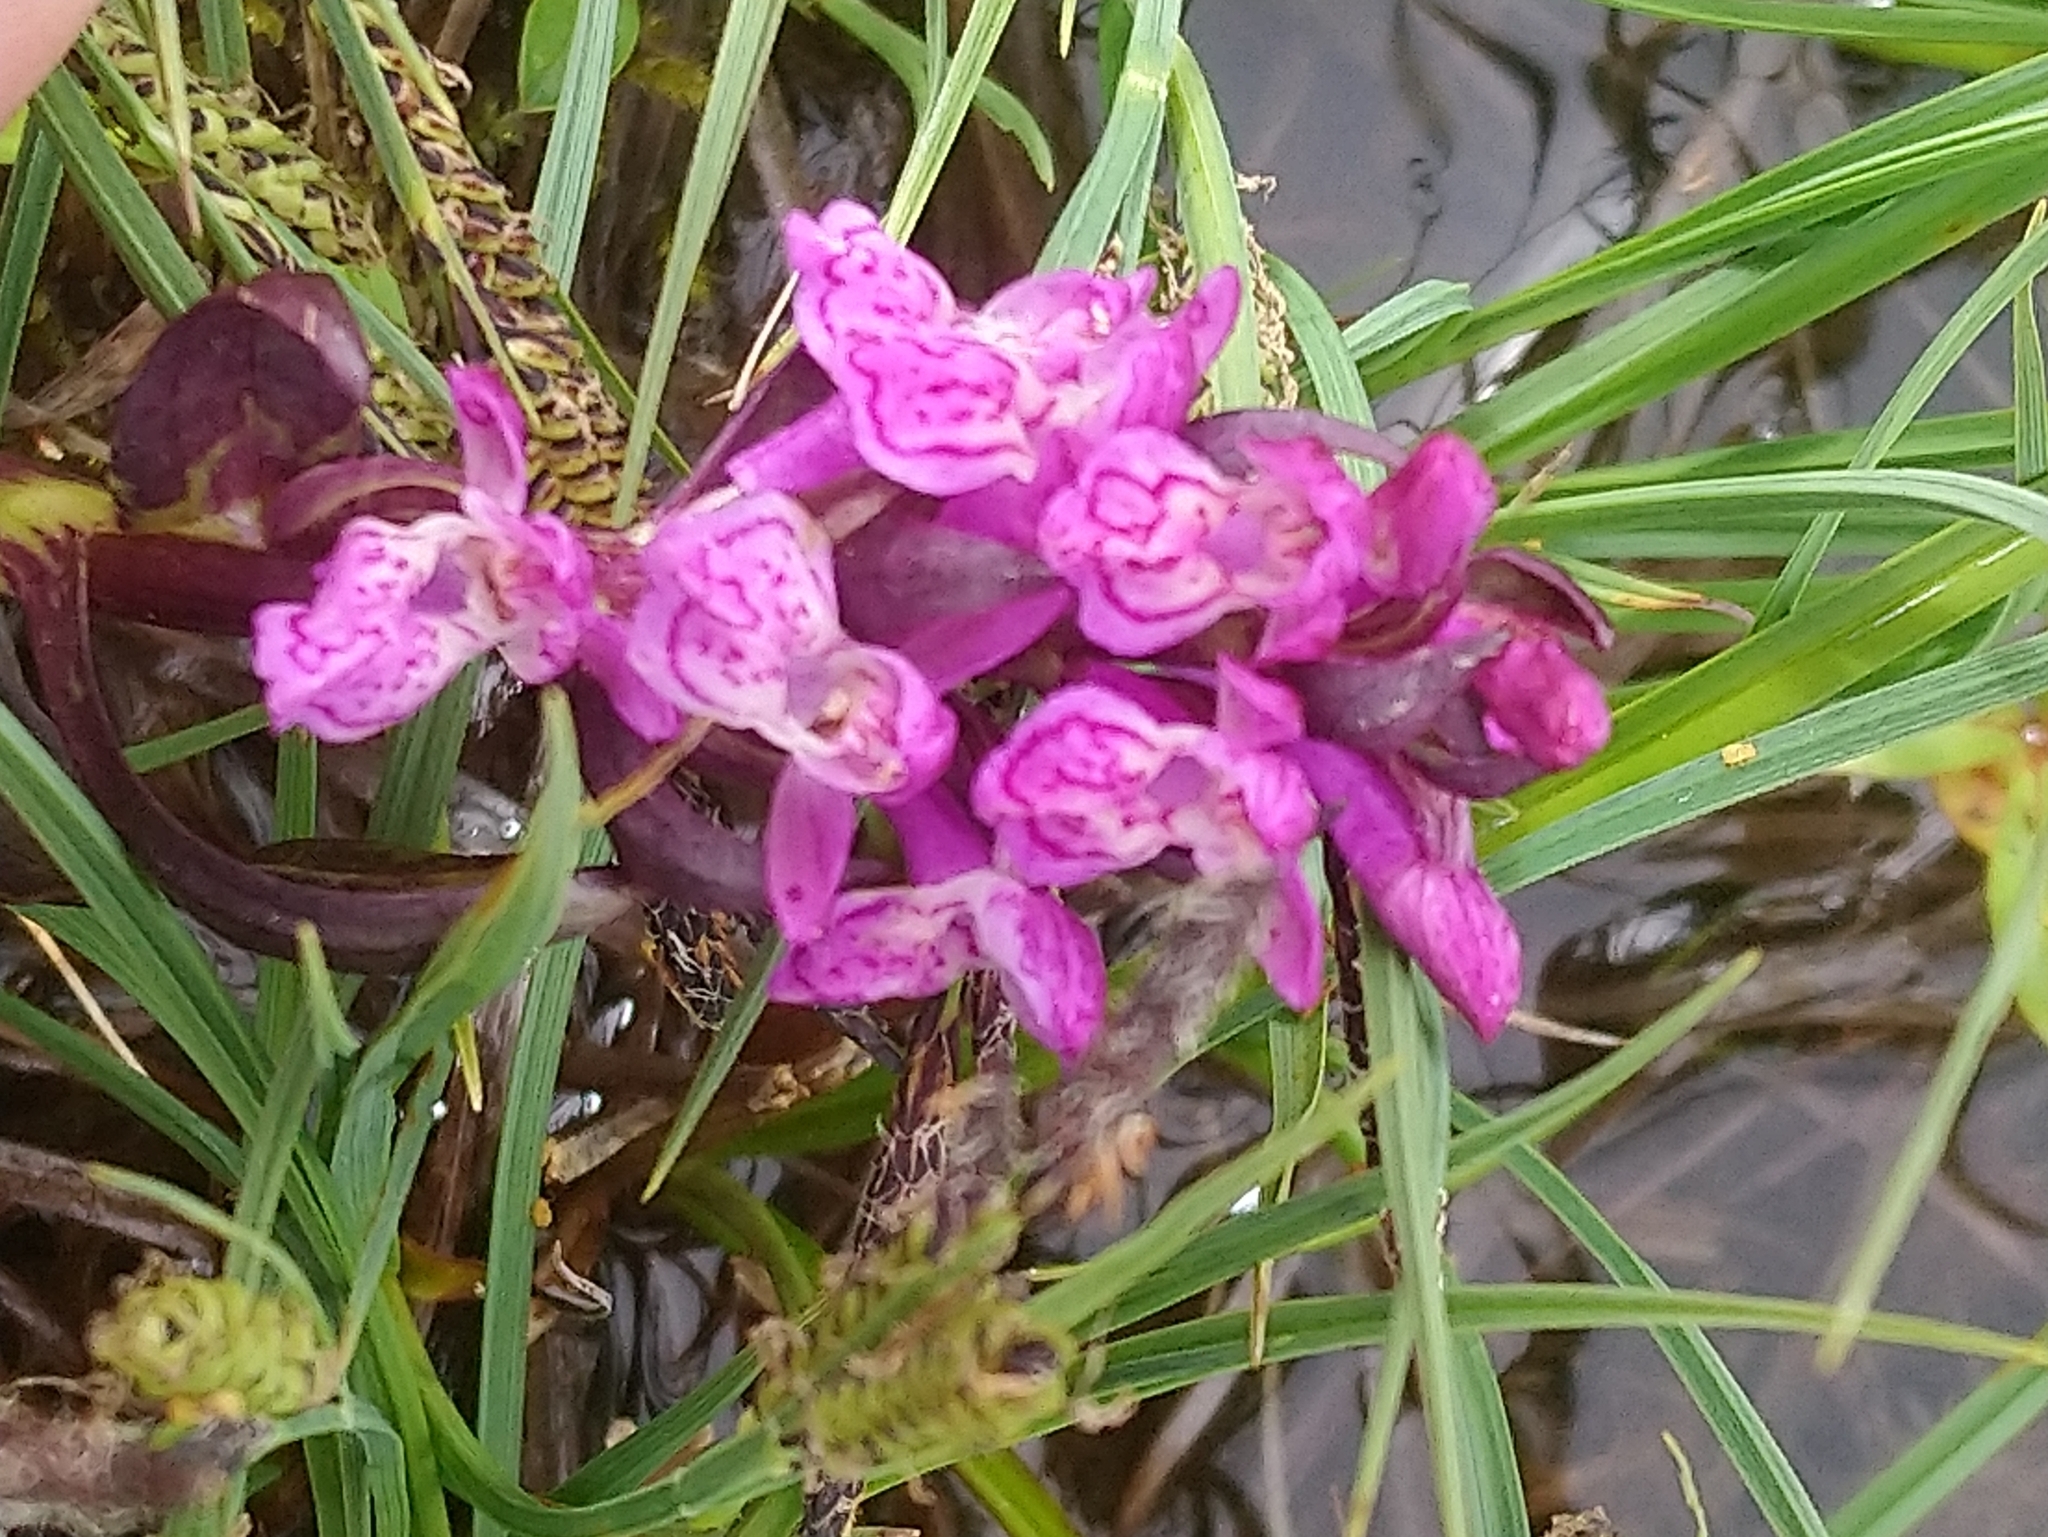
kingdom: Plantae
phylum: Tracheophyta
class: Liliopsida
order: Asparagales
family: Orchidaceae
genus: Dactylorhiza
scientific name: Dactylorhiza incarnata
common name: Early marsh-orchid
